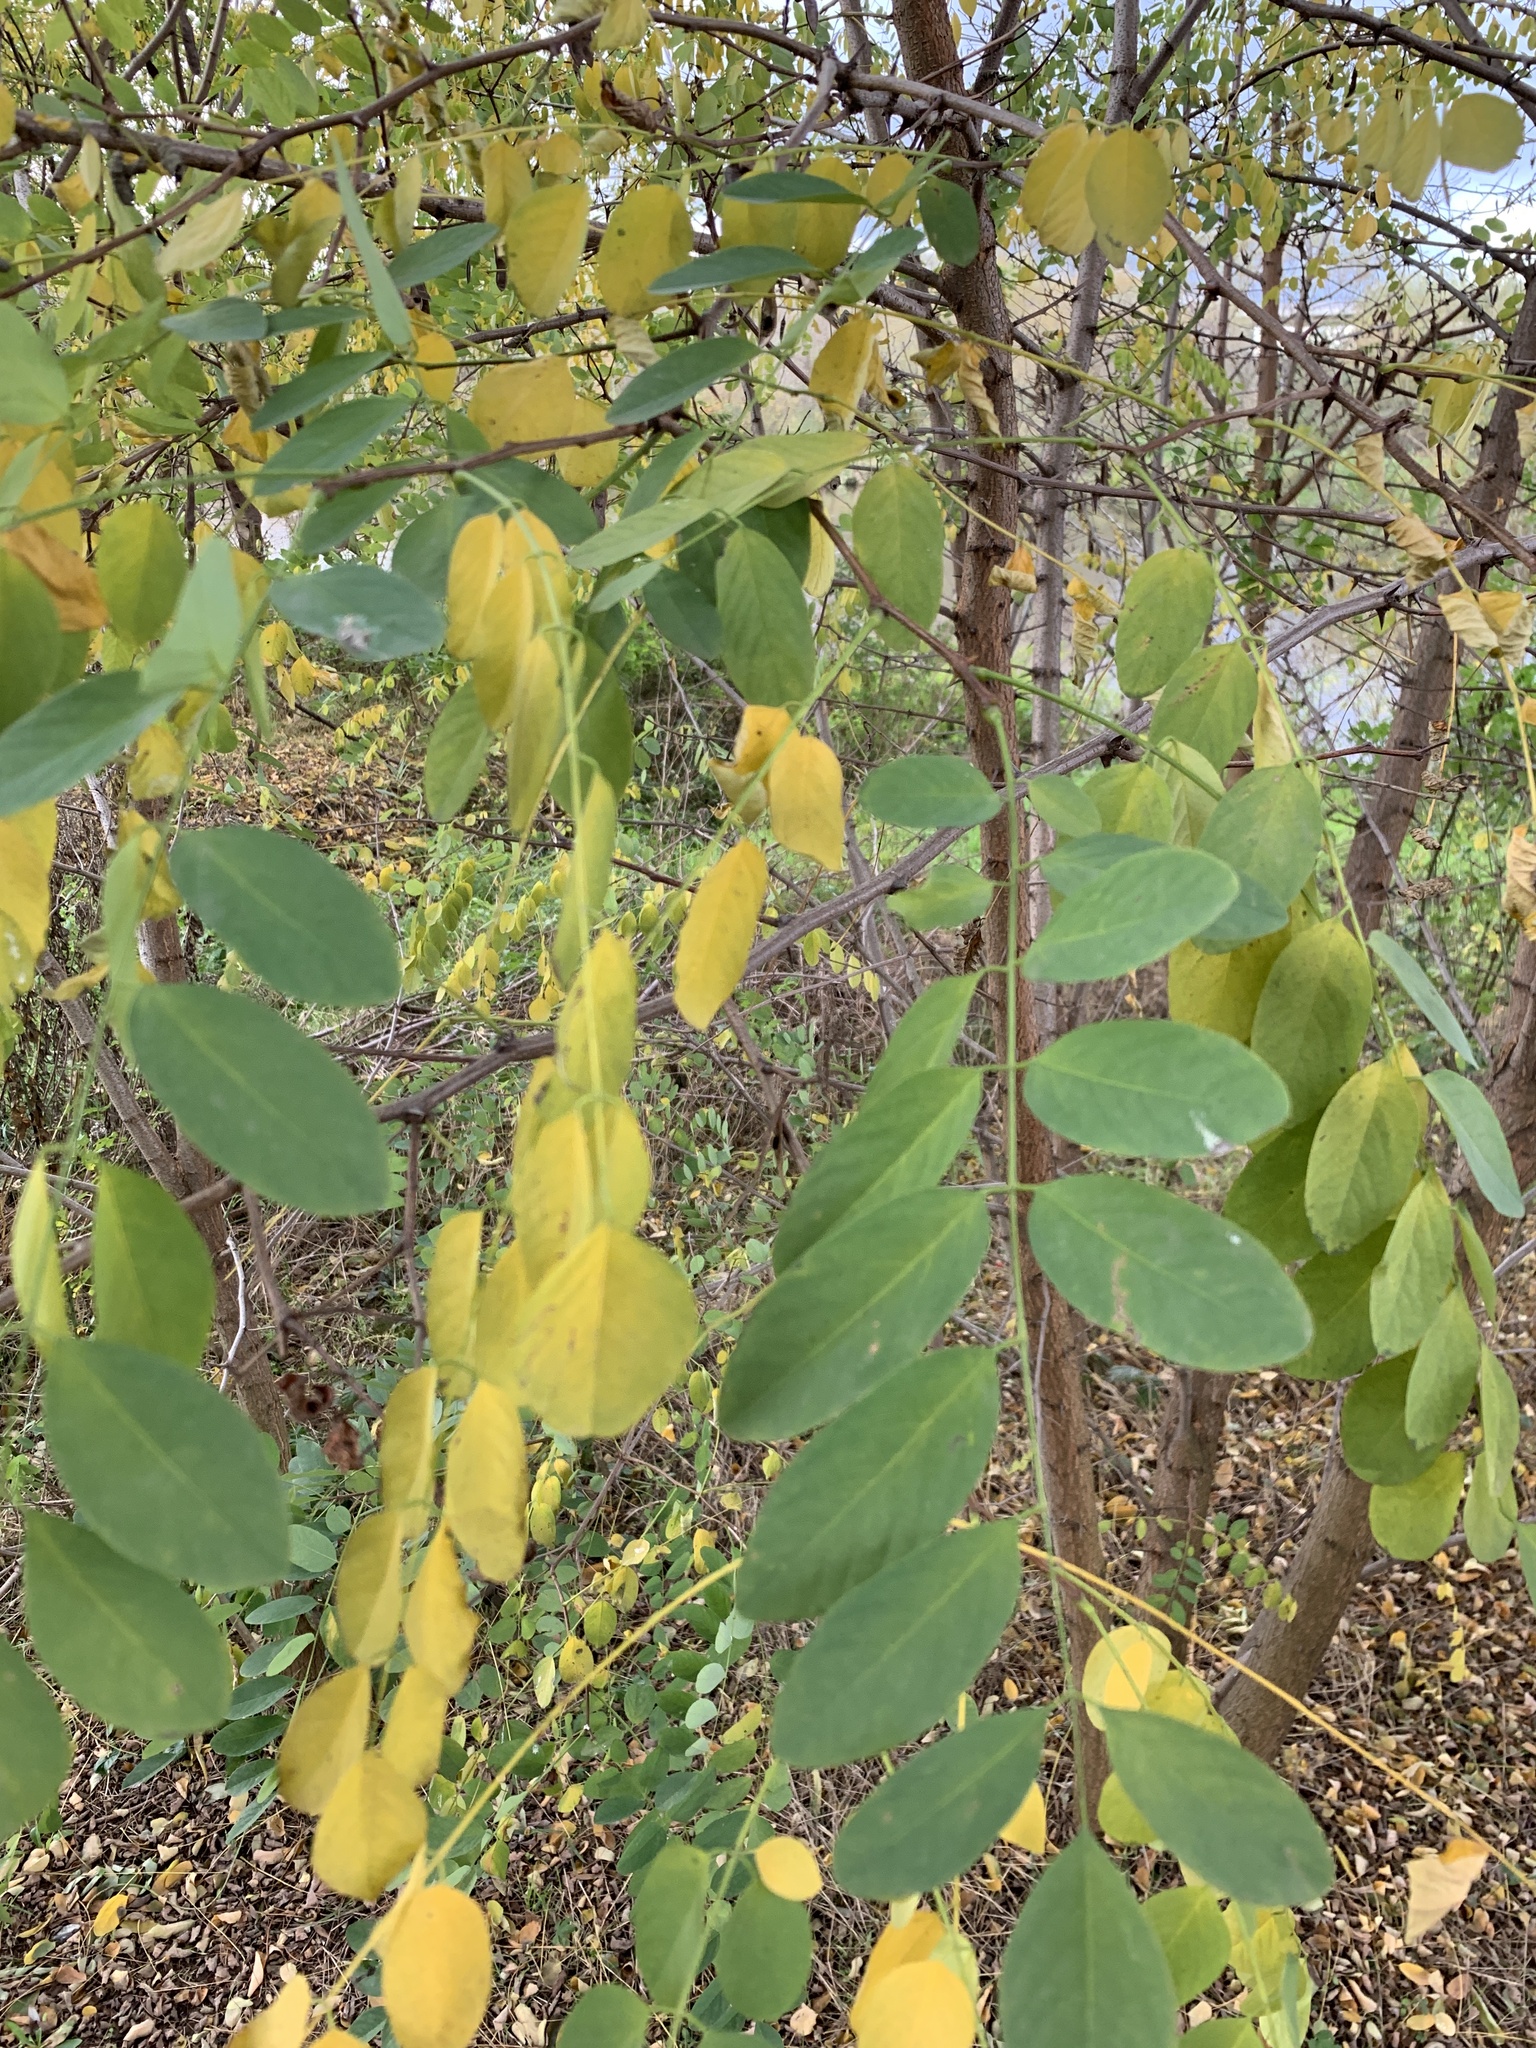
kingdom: Plantae
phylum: Tracheophyta
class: Magnoliopsida
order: Fabales
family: Fabaceae
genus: Robinia
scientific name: Robinia pseudoacacia
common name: Black locust
